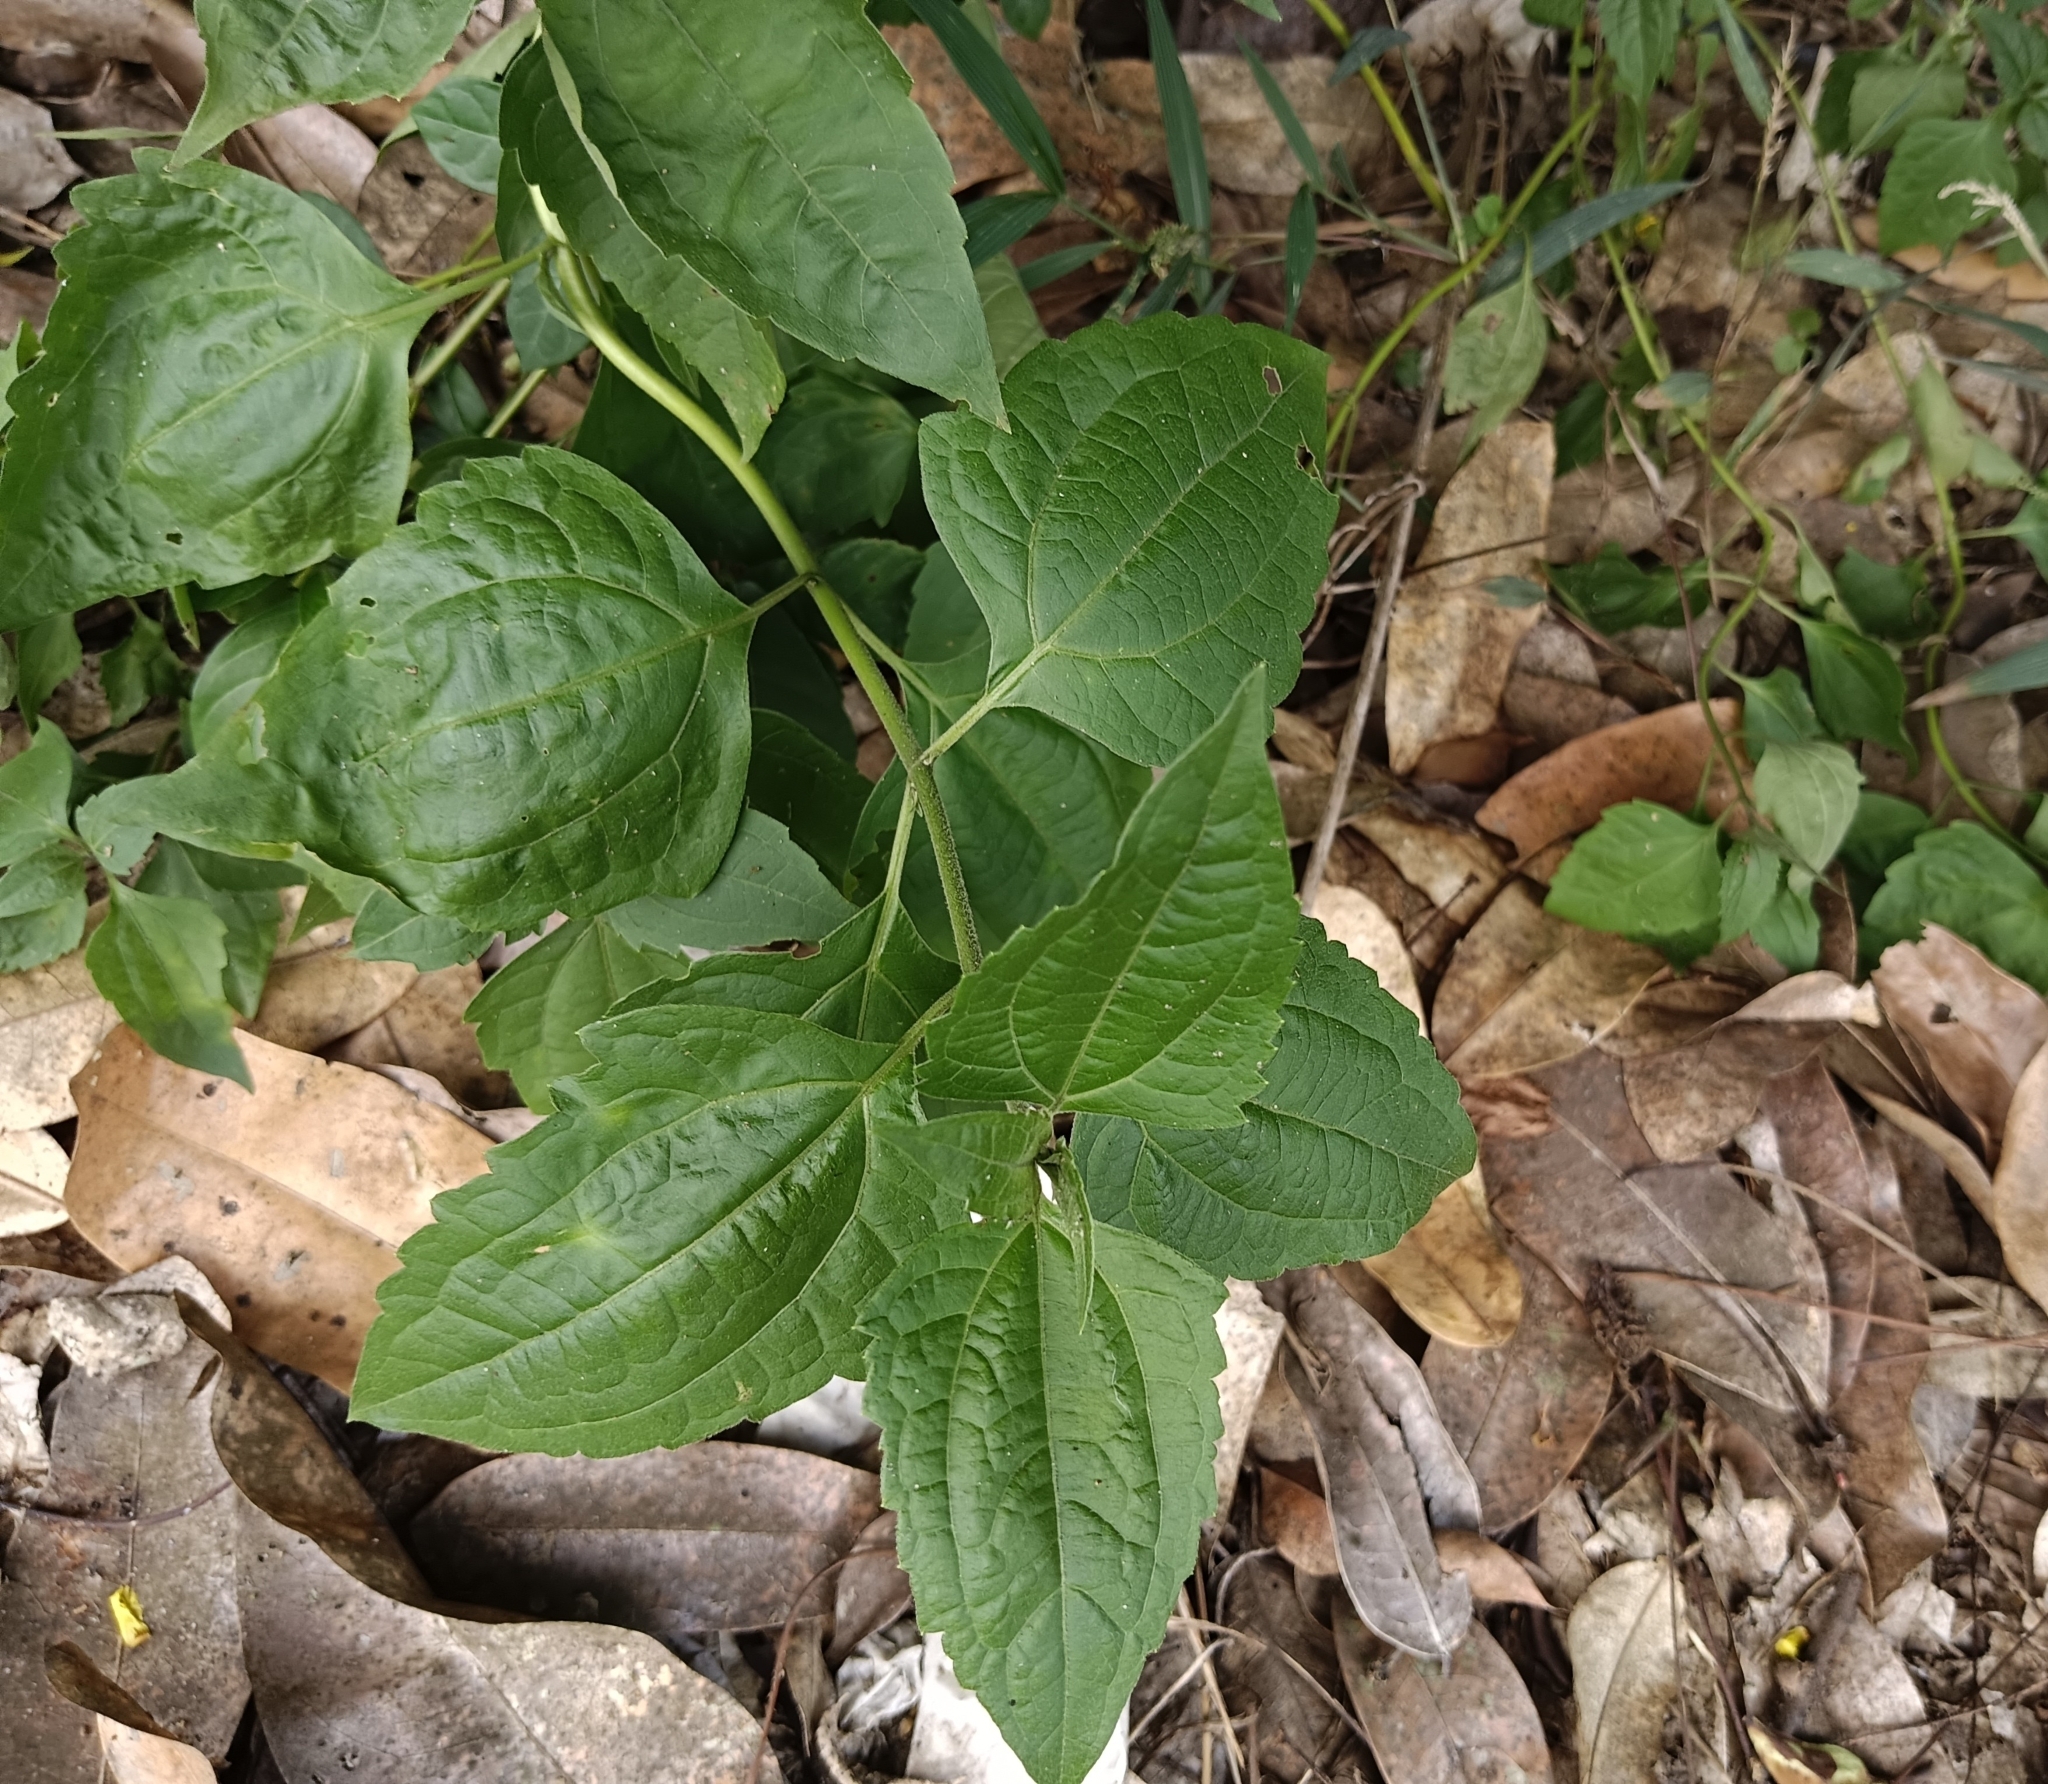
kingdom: Plantae
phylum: Tracheophyta
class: Magnoliopsida
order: Asterales
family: Asteraceae
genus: Chromolaena
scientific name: Chromolaena odorata
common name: Siamweed
